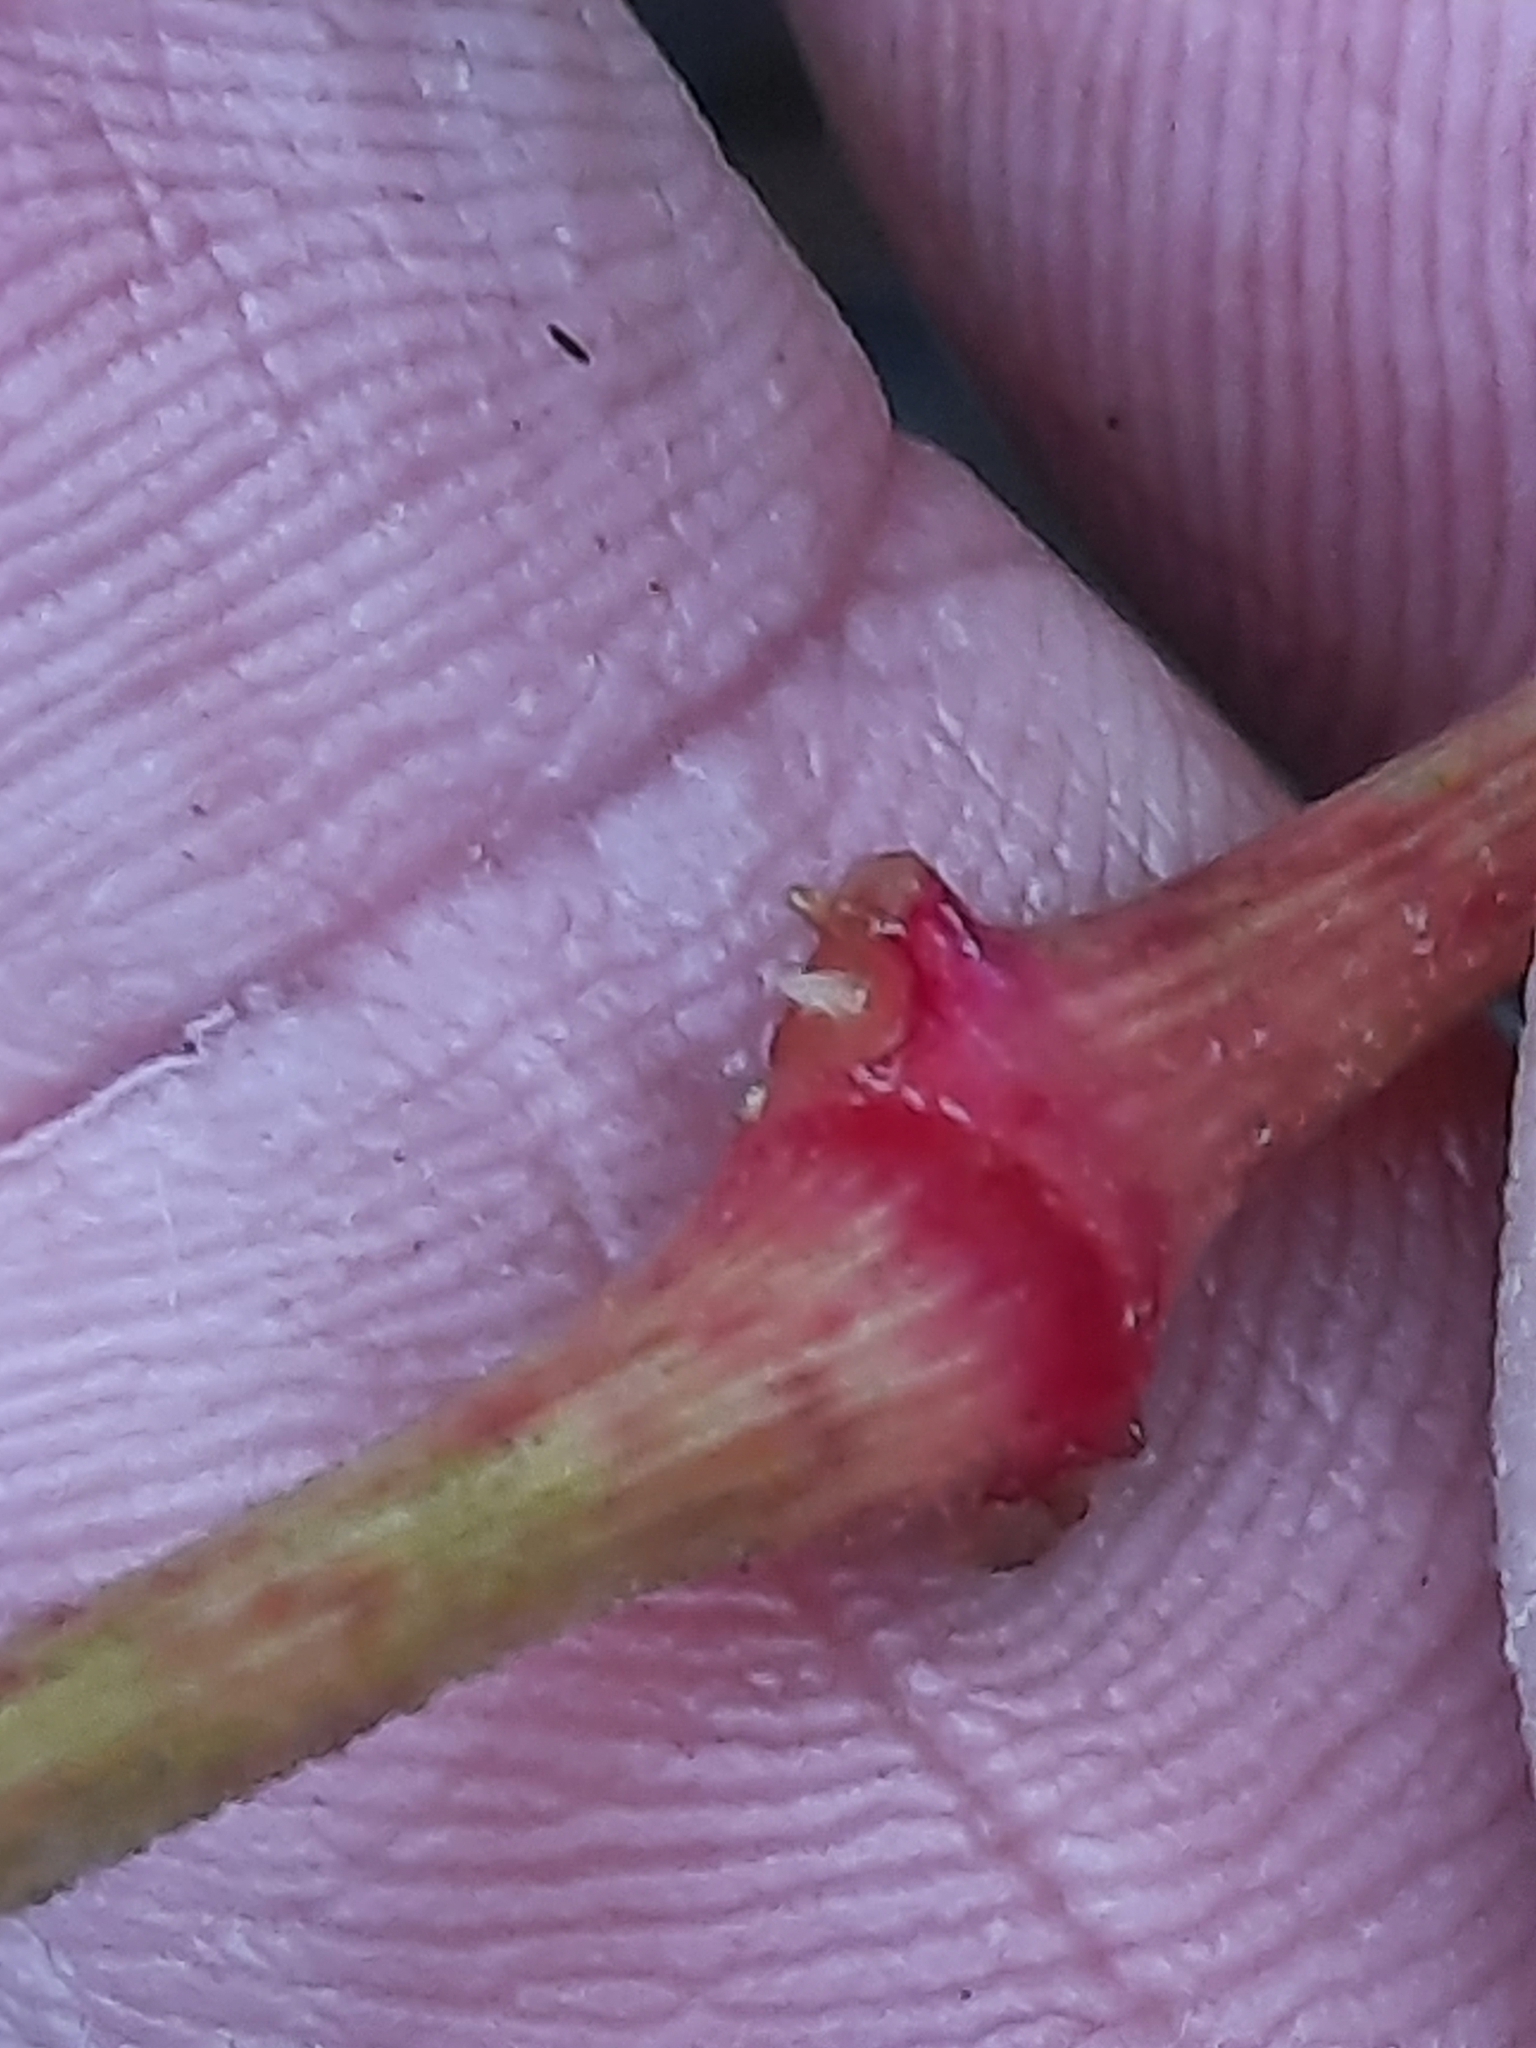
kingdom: Plantae
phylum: Tracheophyta
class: Magnoliopsida
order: Caryophyllales
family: Nyctaginaceae
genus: Mirabilis
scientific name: Mirabilis nyctaginea
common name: Umbrella wort
